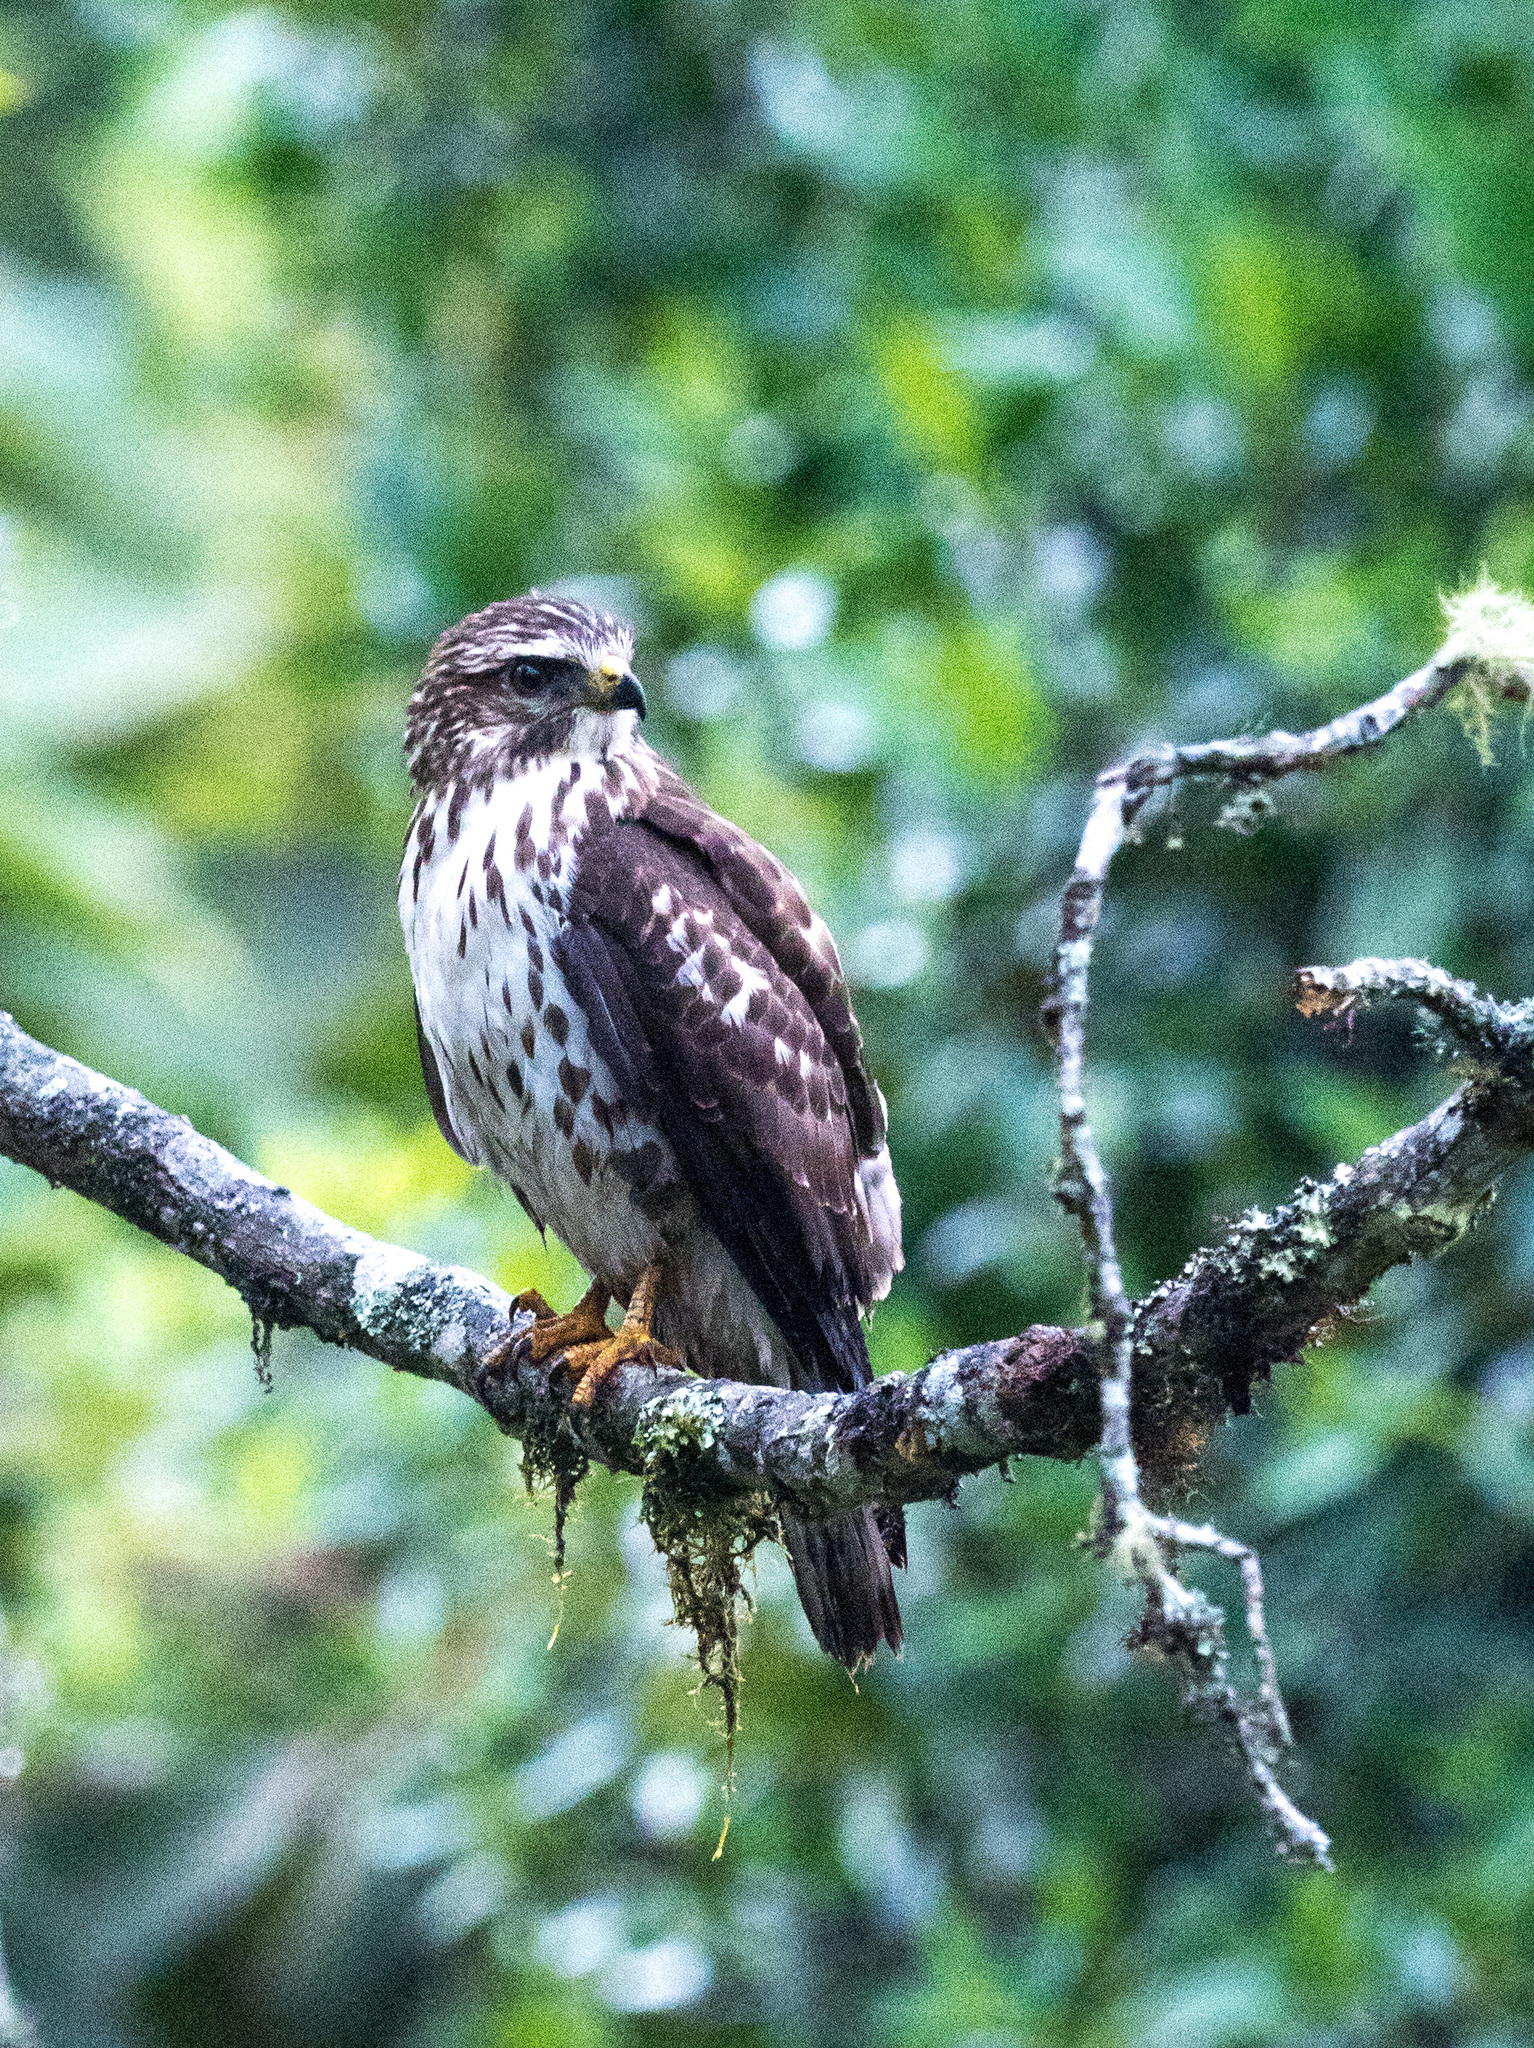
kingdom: Animalia
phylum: Chordata
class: Aves
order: Accipitriformes
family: Accipitridae
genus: Buteo
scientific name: Buteo platypterus
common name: Broad-winged hawk
